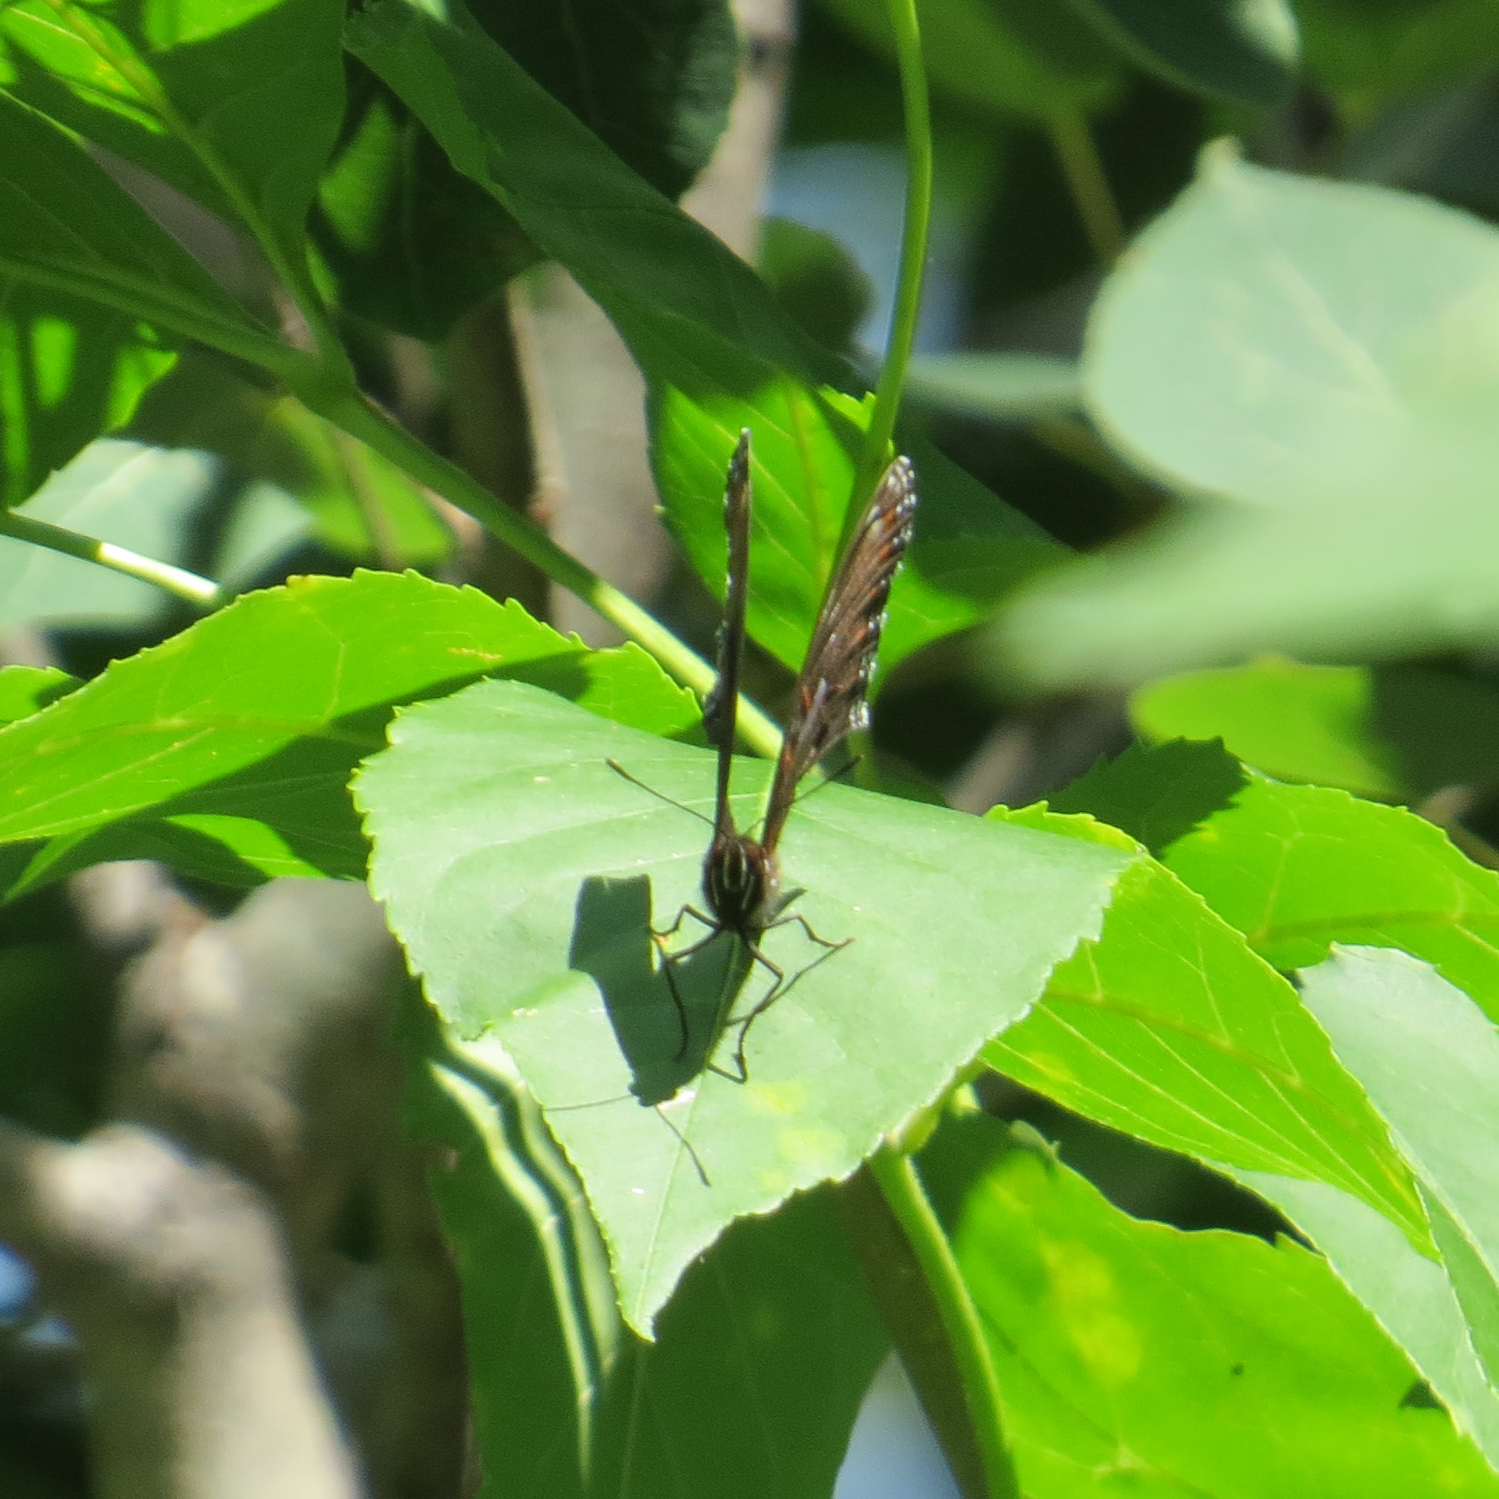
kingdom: Animalia
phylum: Arthropoda
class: Insecta
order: Lepidoptera
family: Nymphalidae
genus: Limenitis
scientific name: Limenitis arthemis
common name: Red-spotted admiral
